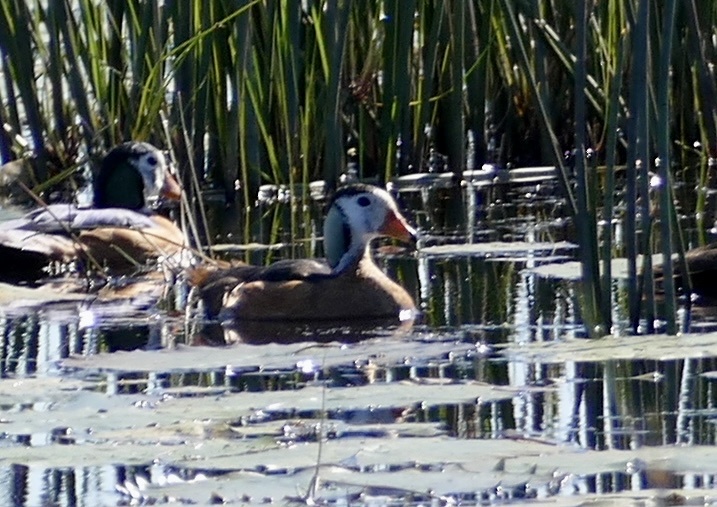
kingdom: Animalia
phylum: Chordata
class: Aves
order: Anseriformes
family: Anatidae
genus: Nettapus
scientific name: Nettapus auritus
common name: African pygmy-goose
